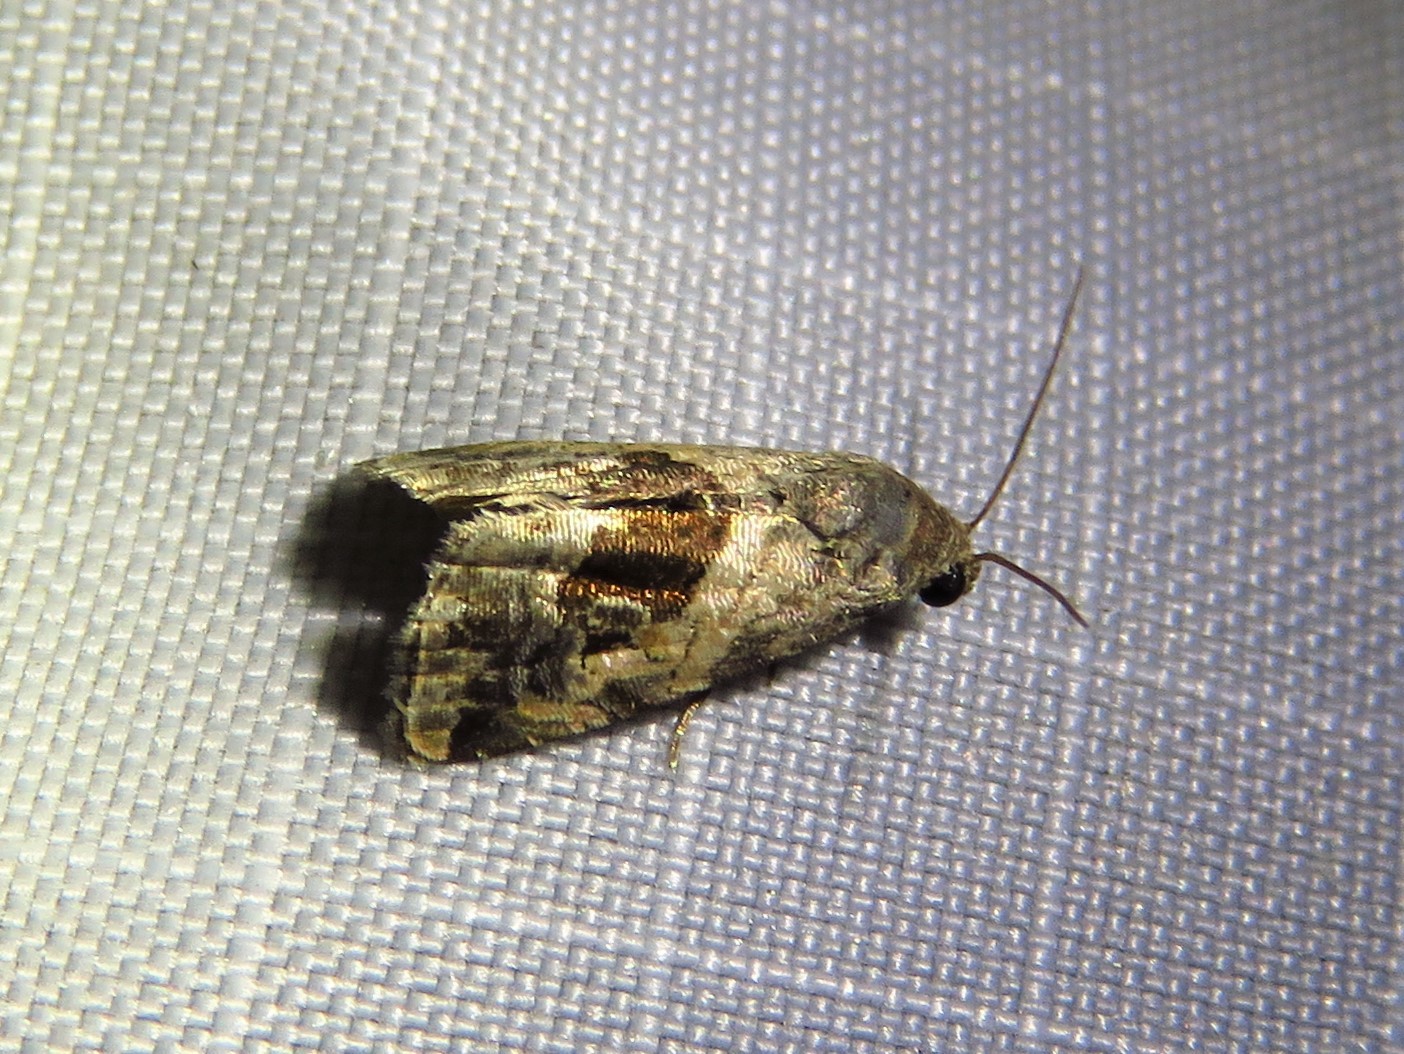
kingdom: Animalia
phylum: Arthropoda
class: Insecta
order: Lepidoptera
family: Noctuidae
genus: Tripudia
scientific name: Tripudia quadrifera
